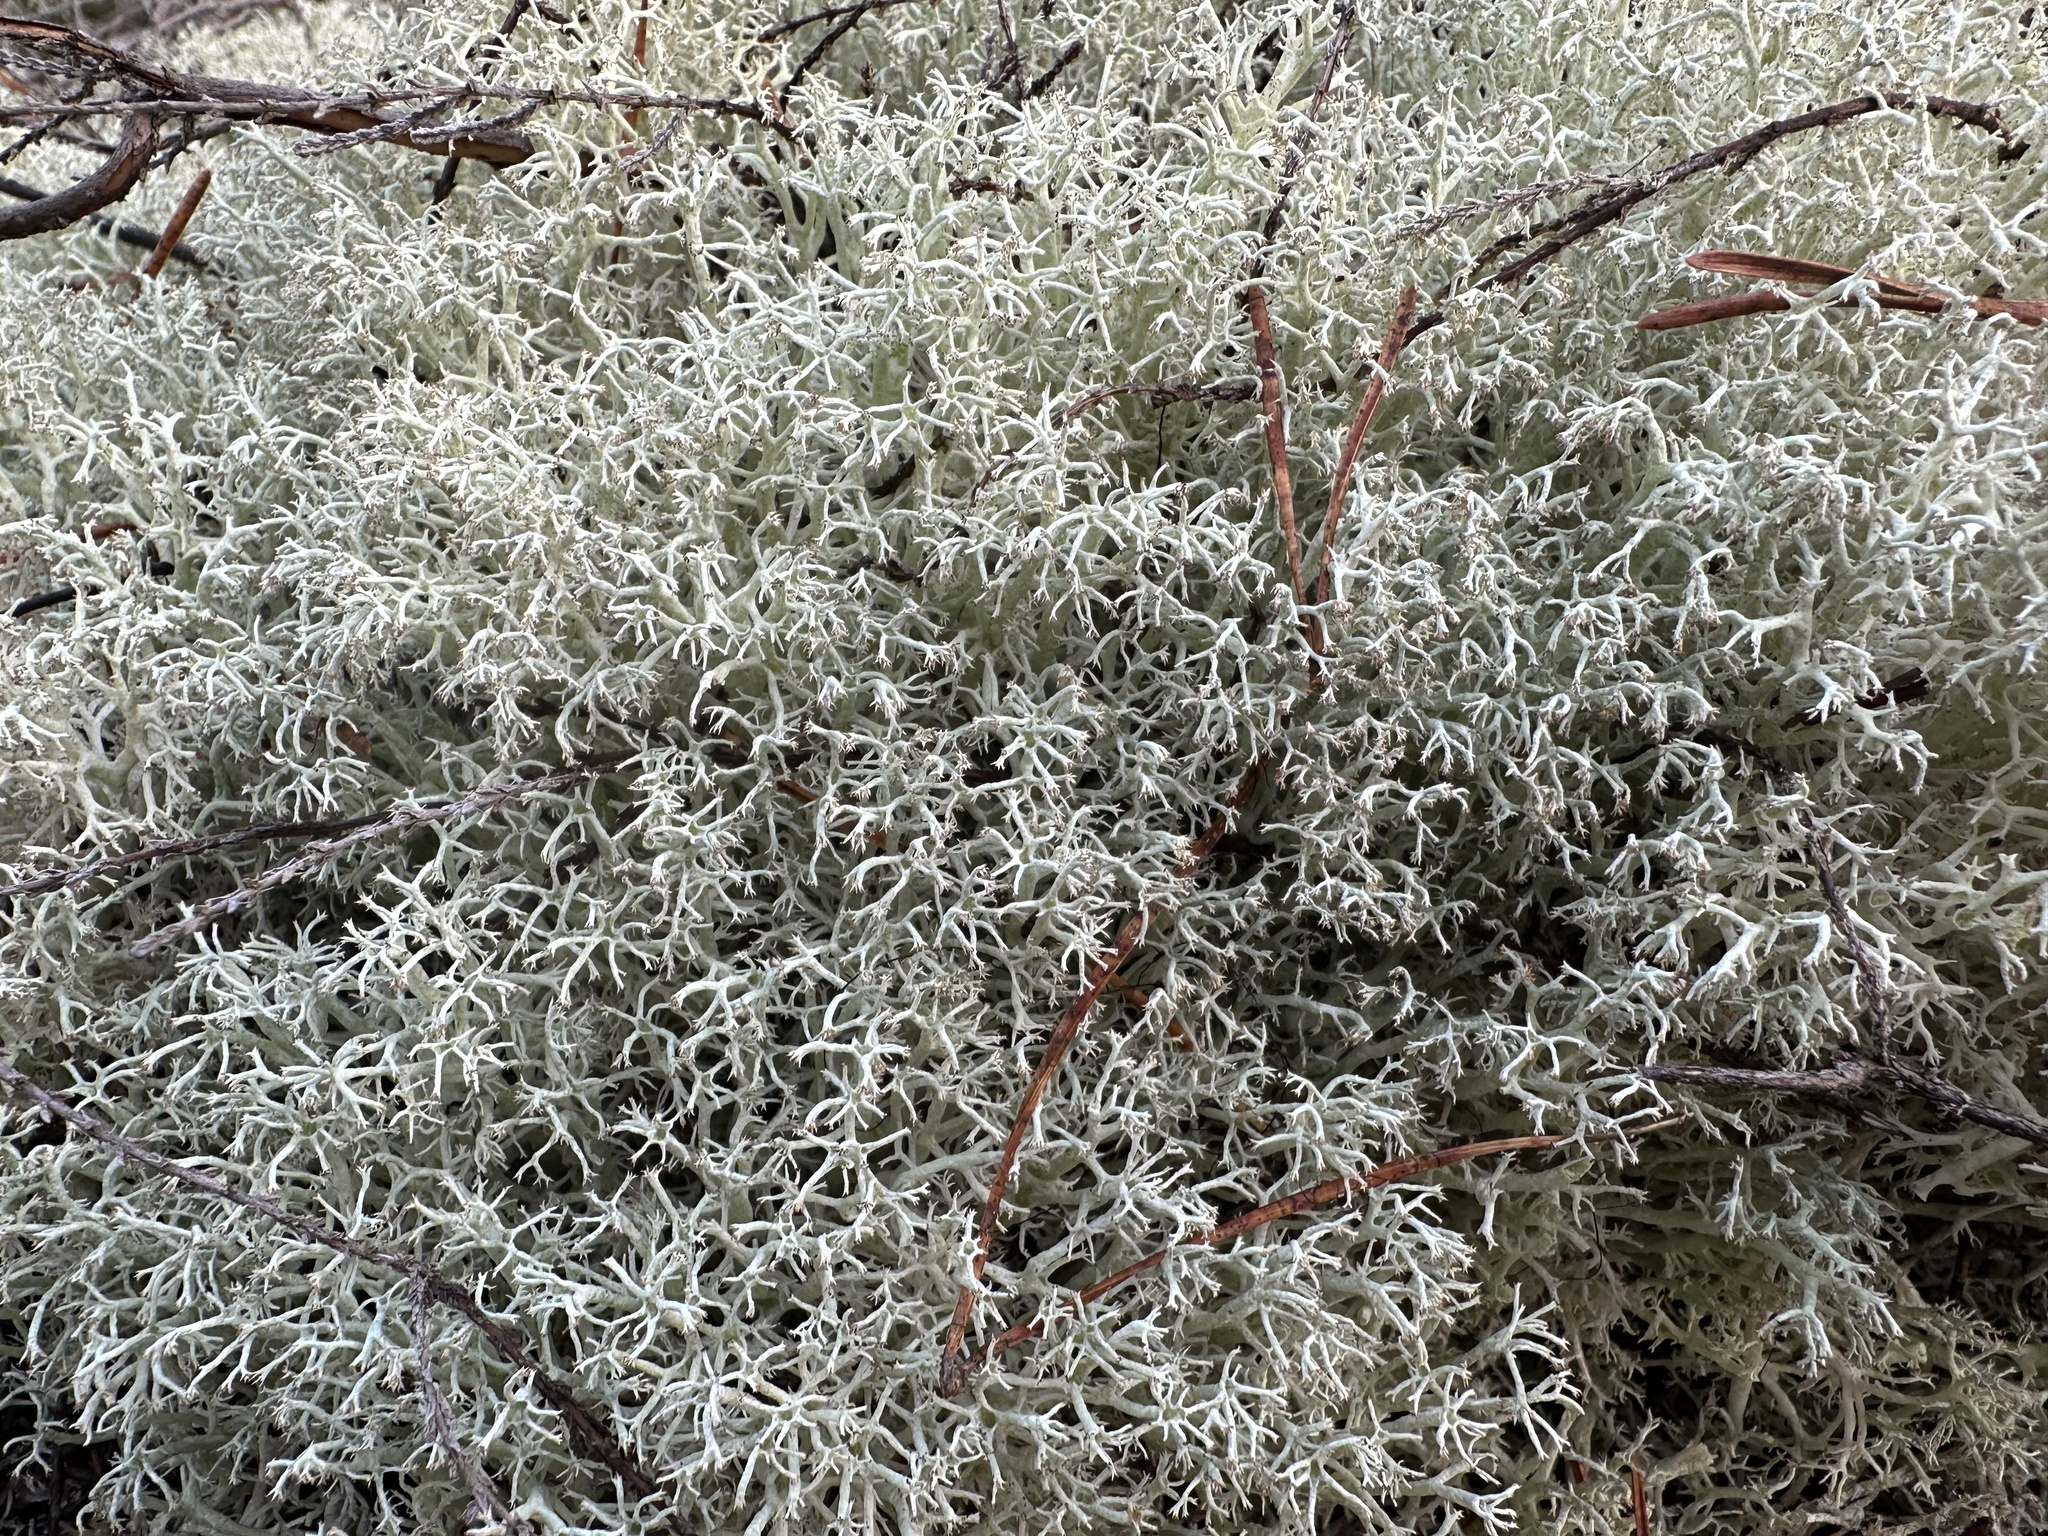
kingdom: Fungi
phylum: Ascomycota
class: Lecanoromycetes
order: Lecanorales
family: Cladoniaceae
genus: Cladonia
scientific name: Cladonia arbuscula
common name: Reindeer lichen
